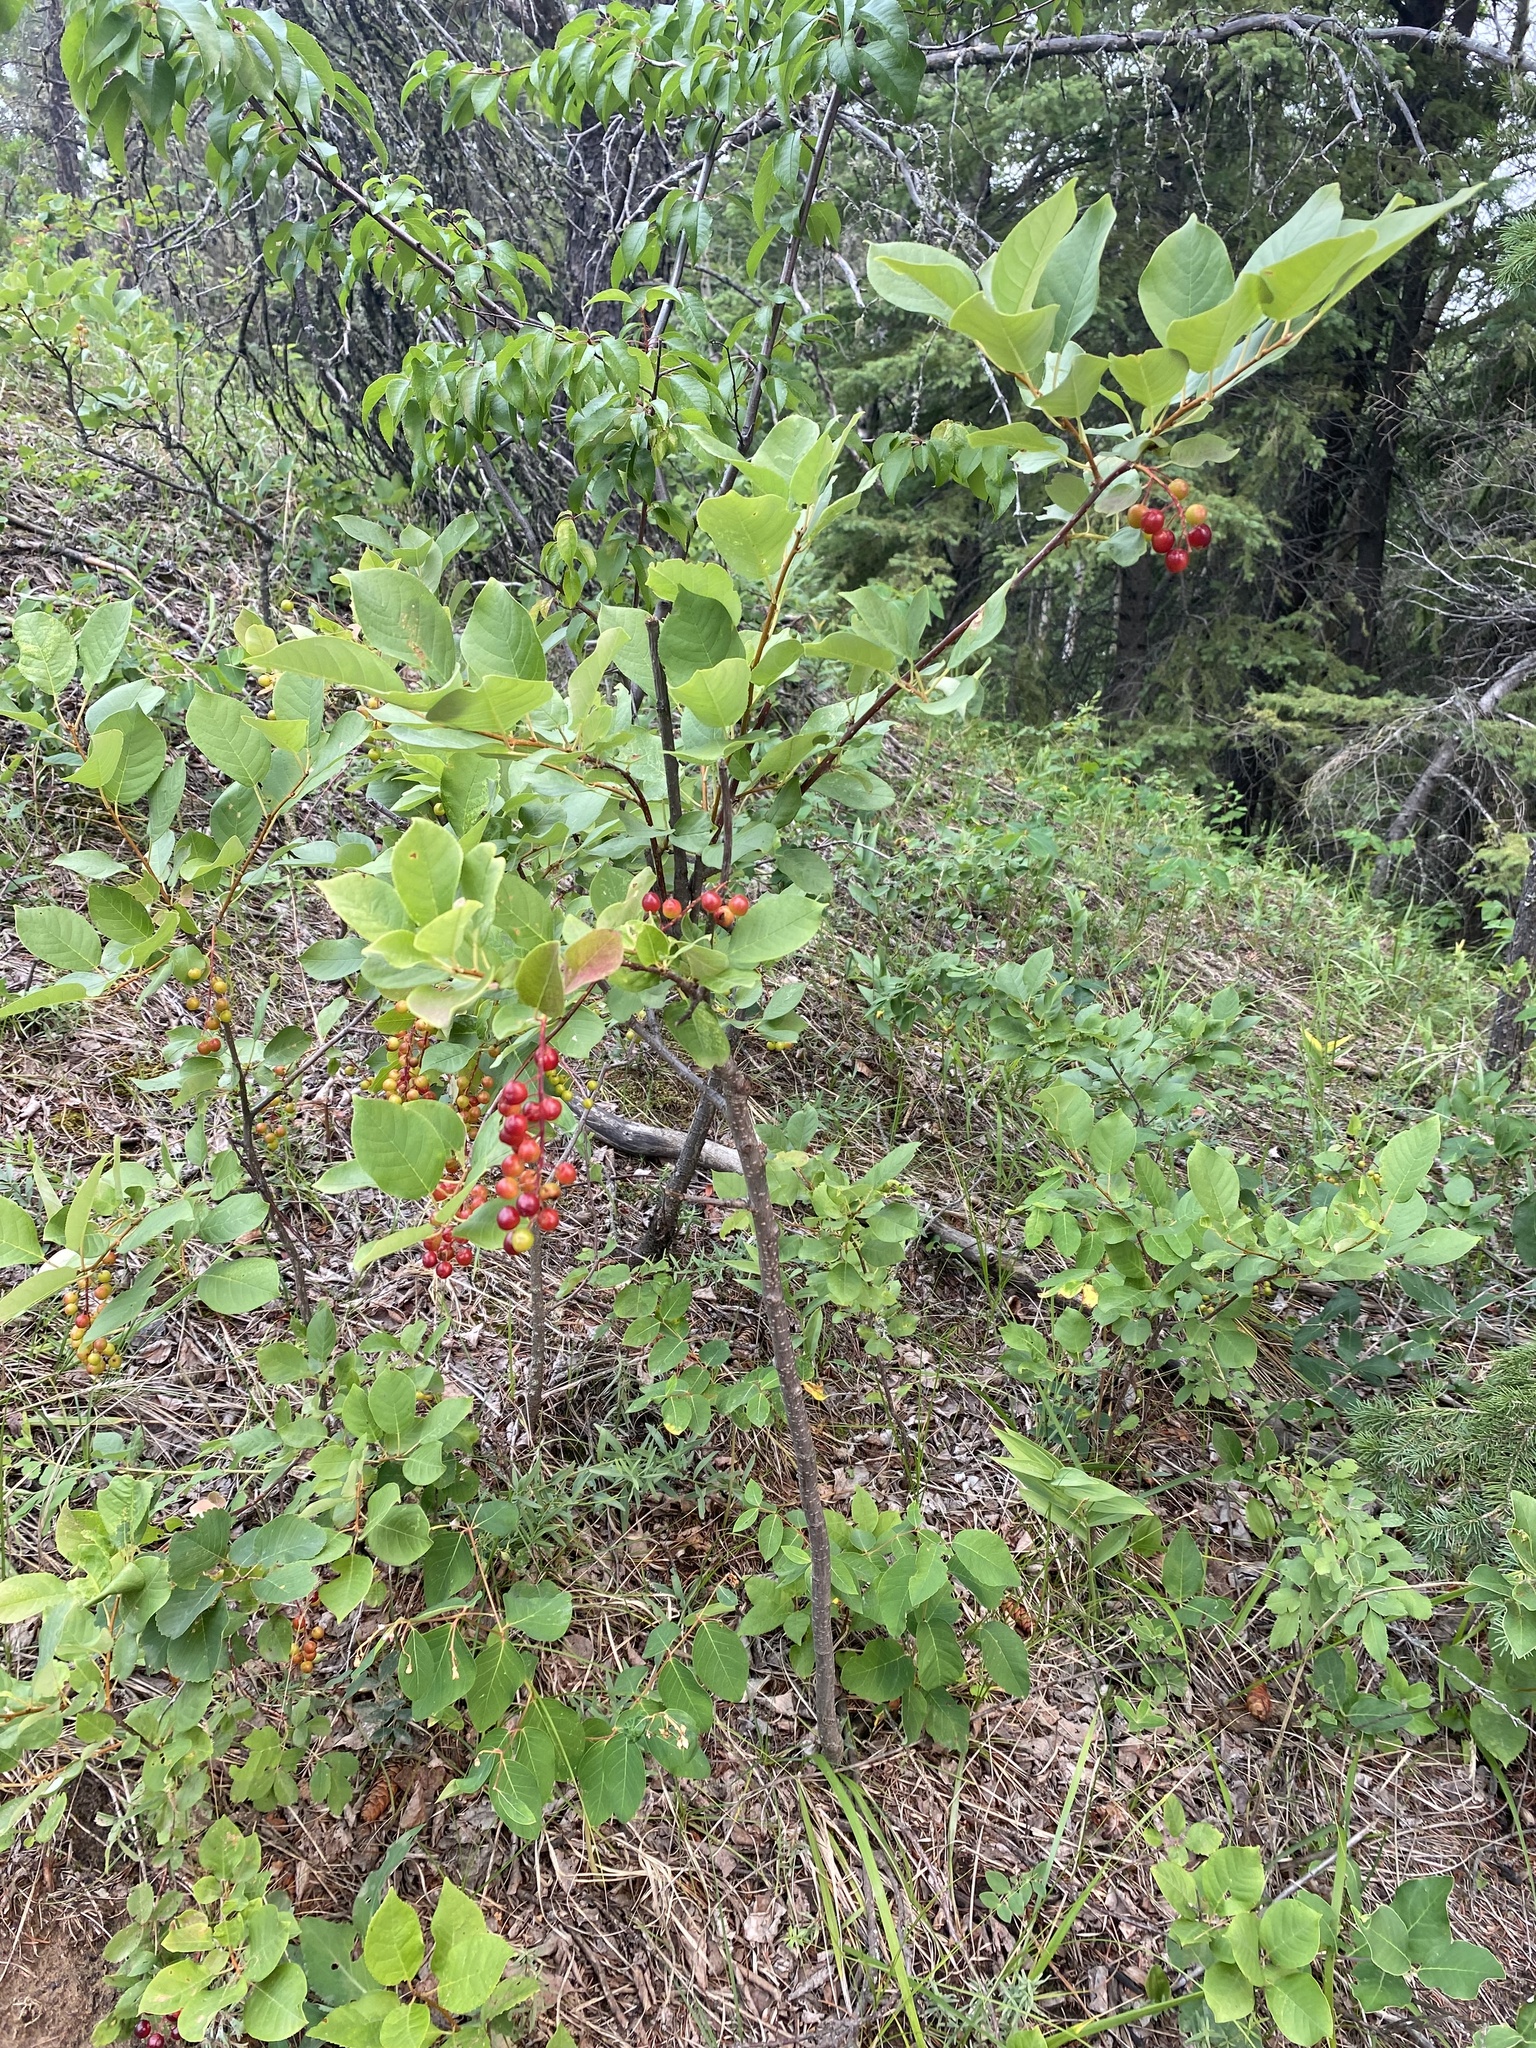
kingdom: Plantae
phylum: Tracheophyta
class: Magnoliopsida
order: Rosales
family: Rosaceae
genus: Prunus
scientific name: Prunus virginiana
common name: Chokecherry
